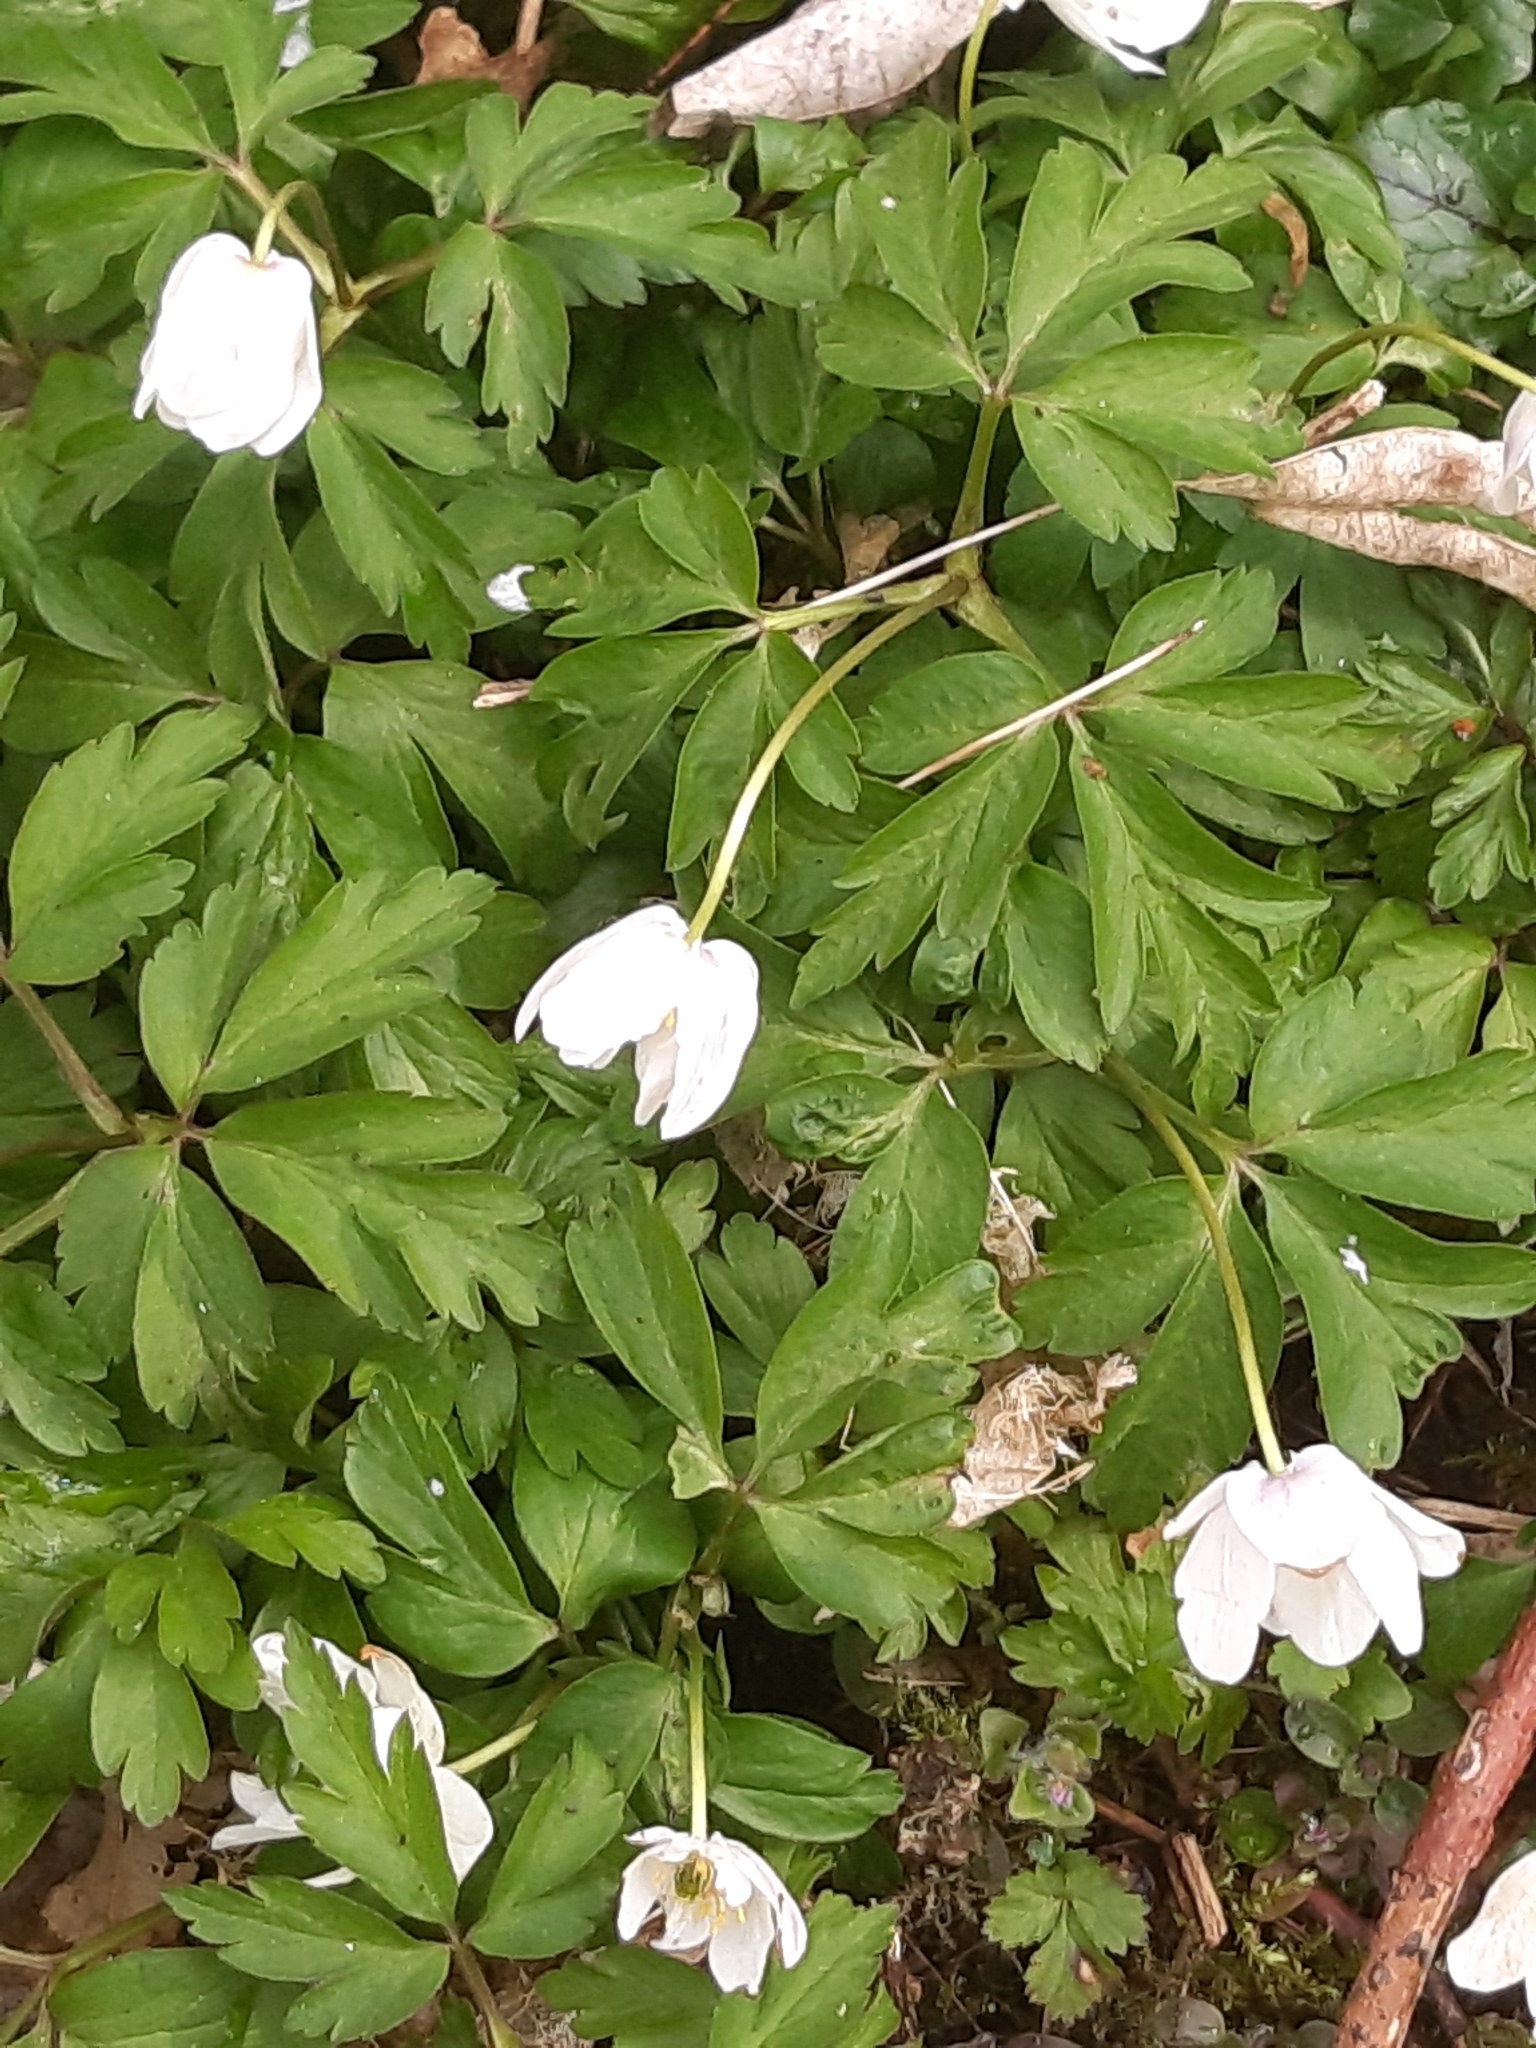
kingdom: Plantae
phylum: Tracheophyta
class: Magnoliopsida
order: Ranunculales
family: Ranunculaceae
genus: Anemone
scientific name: Anemone nemorosa
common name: Wood anemone
